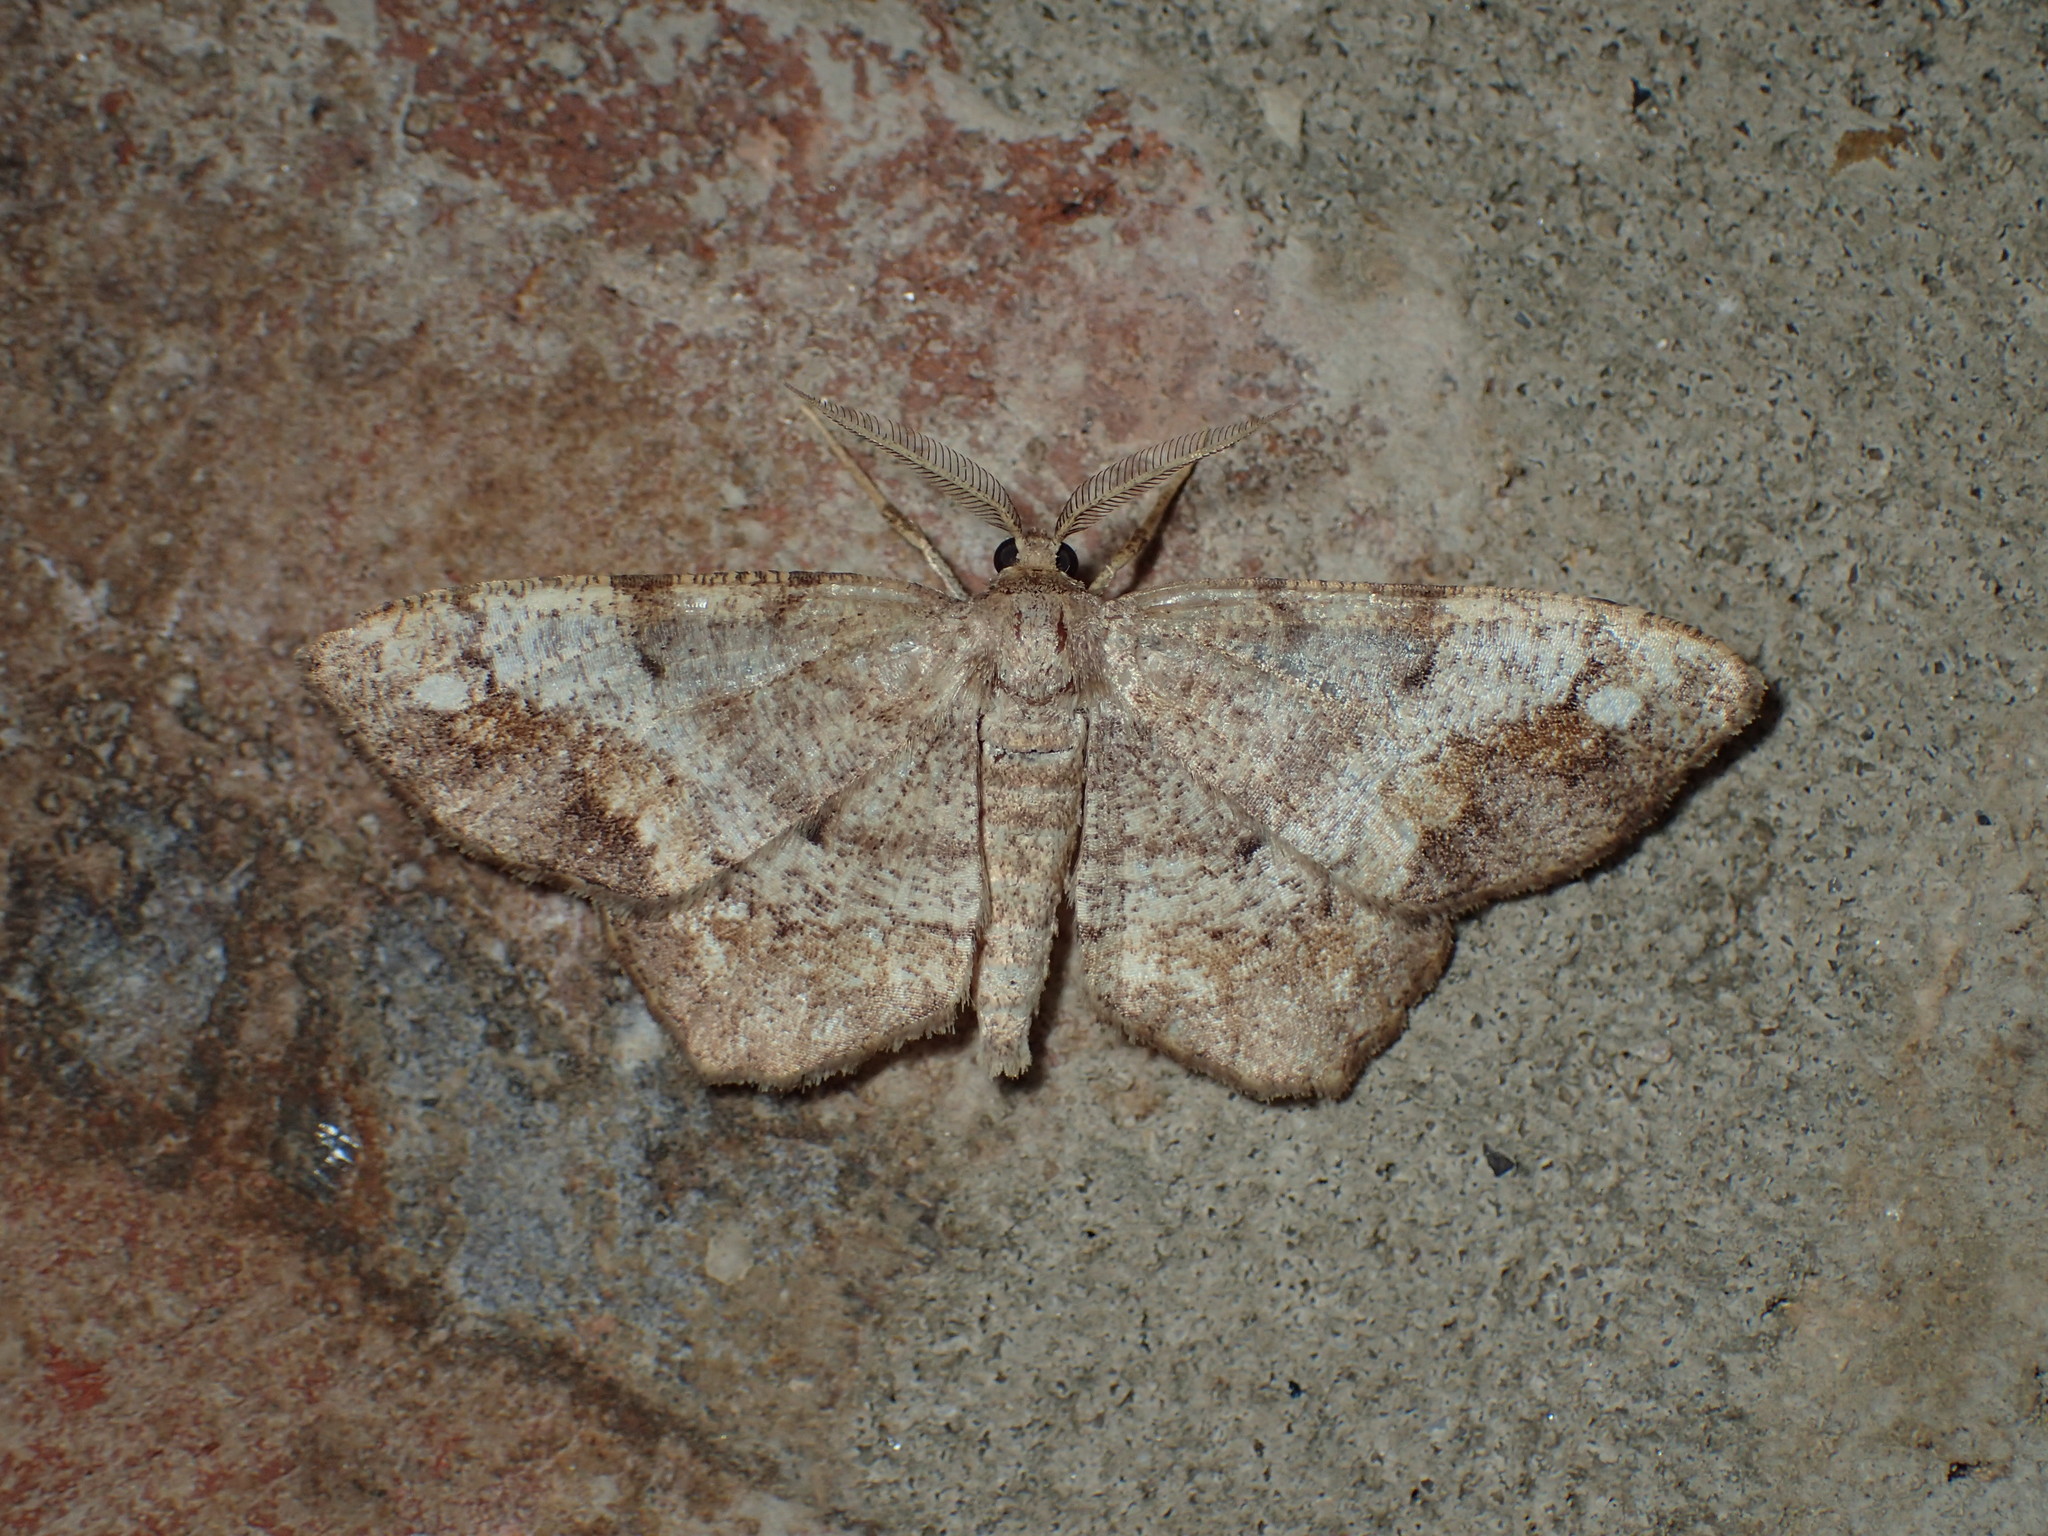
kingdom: Animalia
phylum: Arthropoda
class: Insecta
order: Lepidoptera
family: Geometridae
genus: Hypagyrtis
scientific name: Hypagyrtis unipunctata
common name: One-spotted variant
